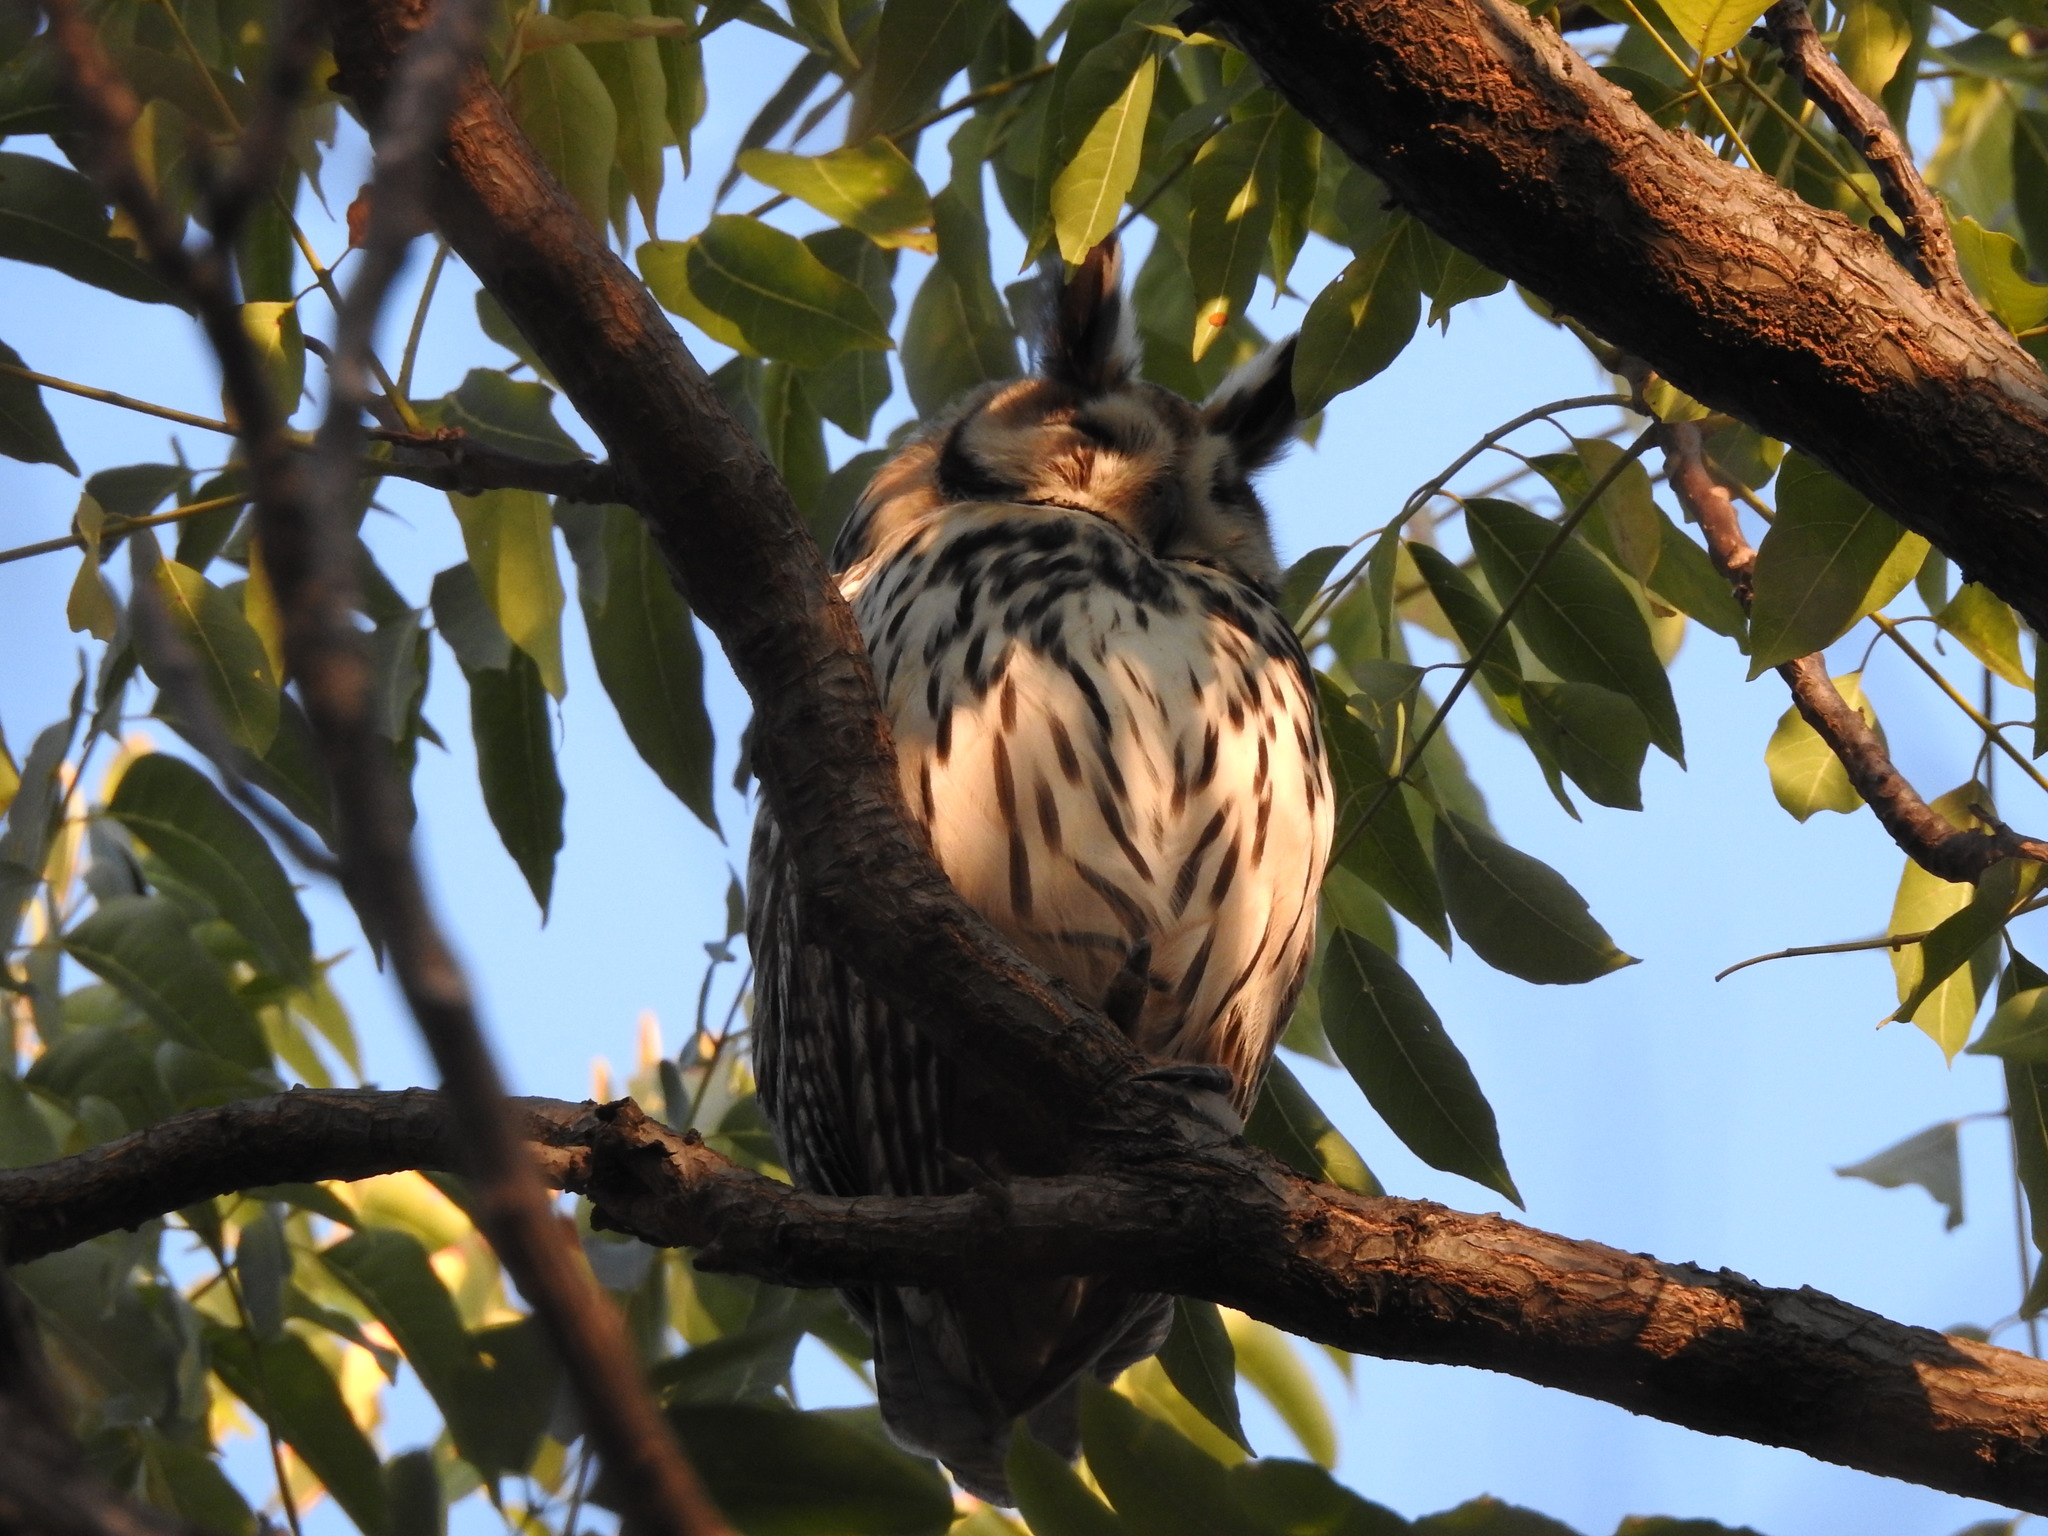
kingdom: Animalia
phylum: Chordata
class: Aves
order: Strigiformes
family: Strigidae
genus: Pseudoscops
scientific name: Pseudoscops clamator
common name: Striped owl
